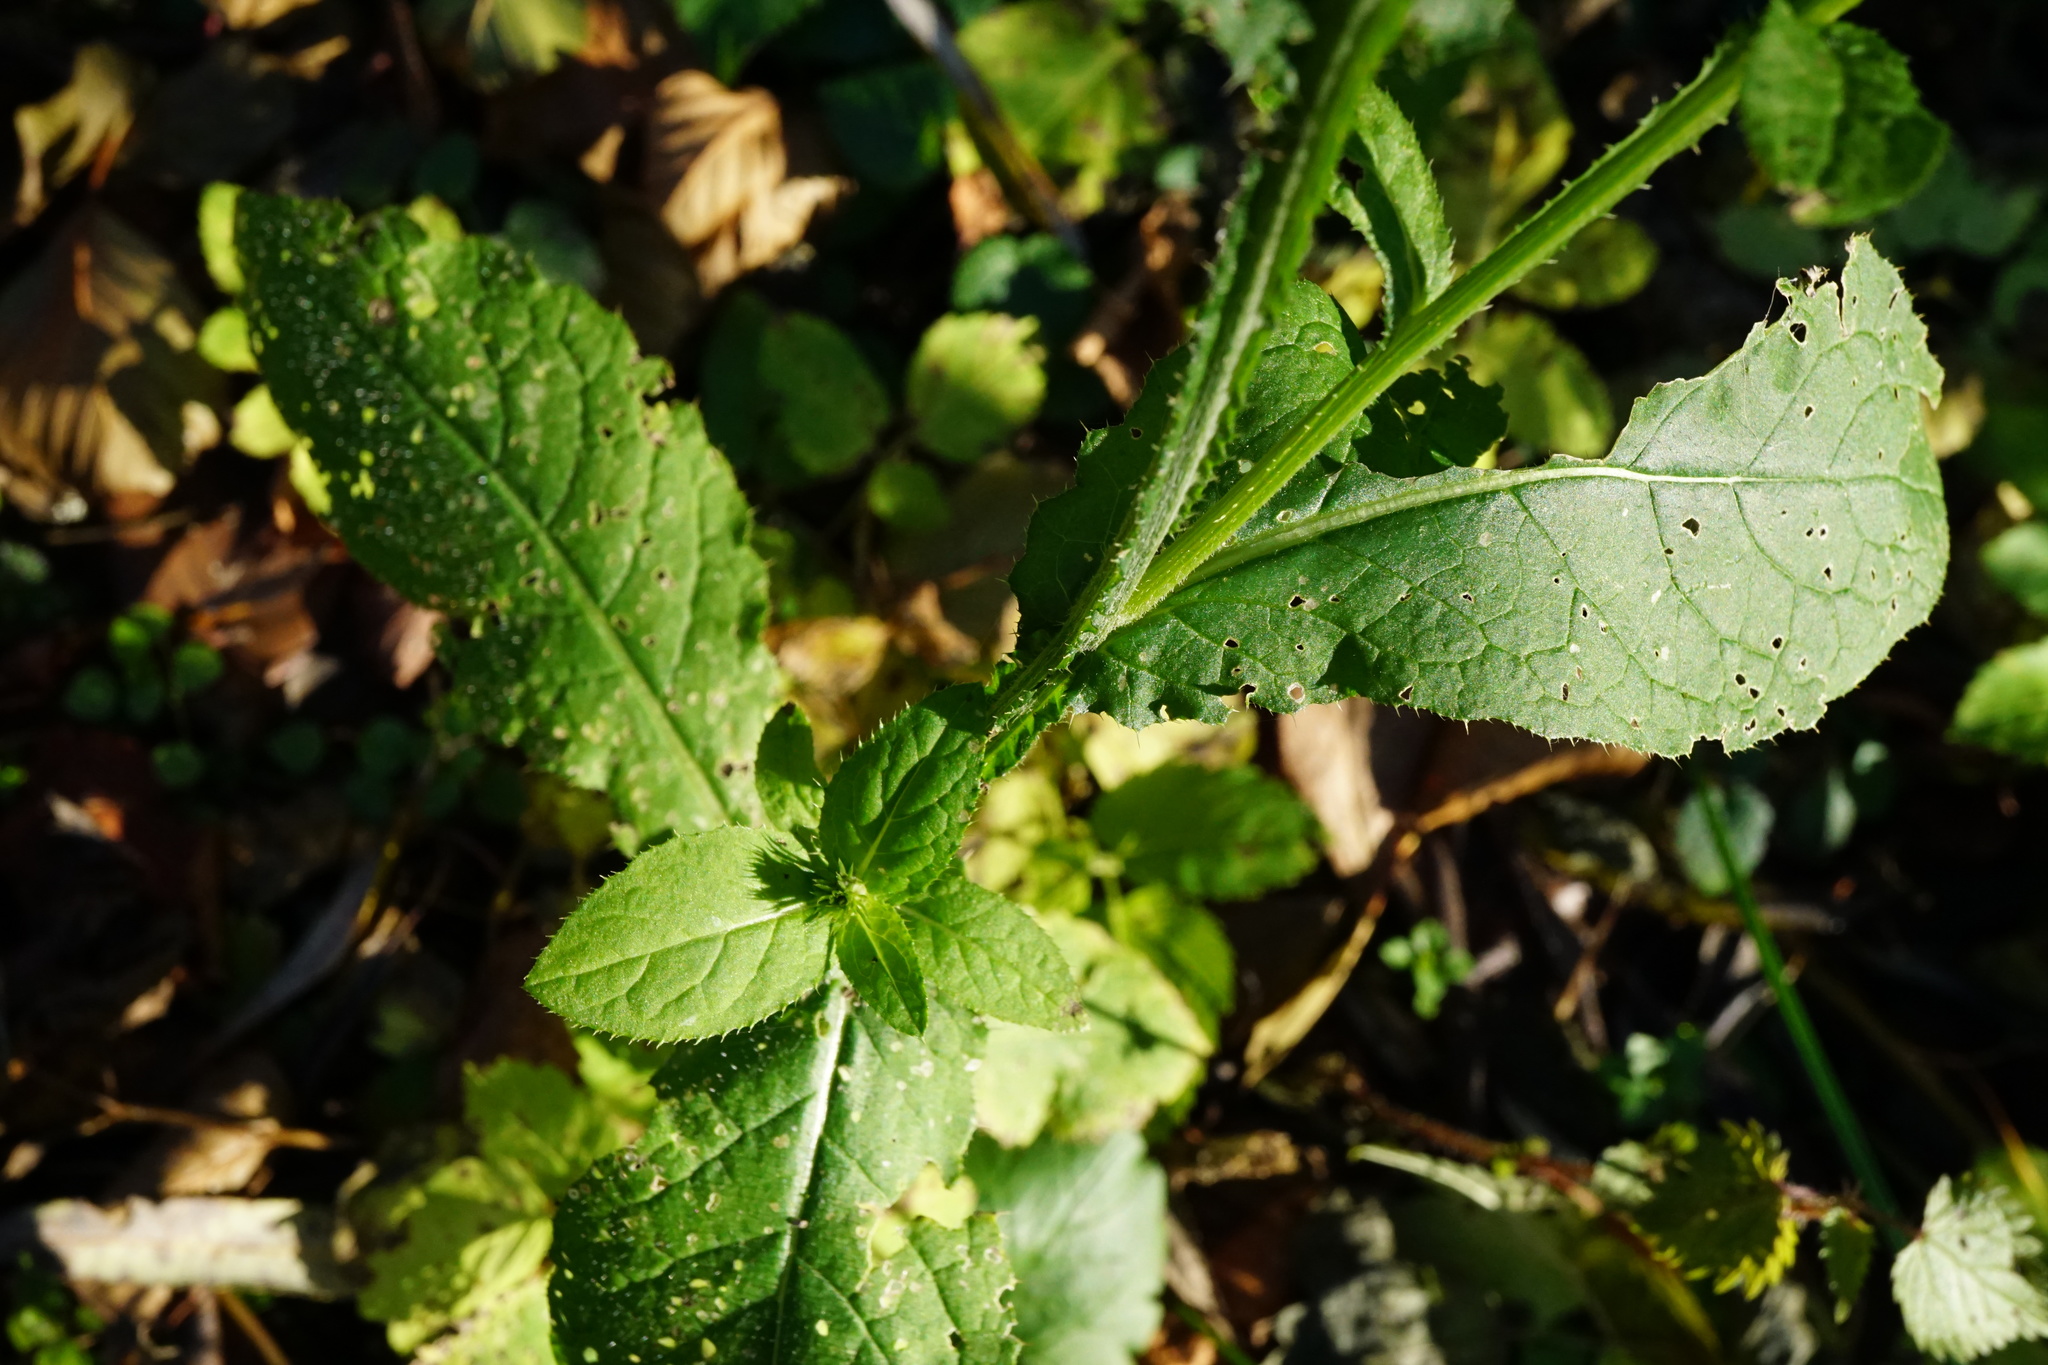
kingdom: Plantae
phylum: Tracheophyta
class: Magnoliopsida
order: Asterales
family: Asteraceae
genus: Carduus
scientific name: Carduus personata
